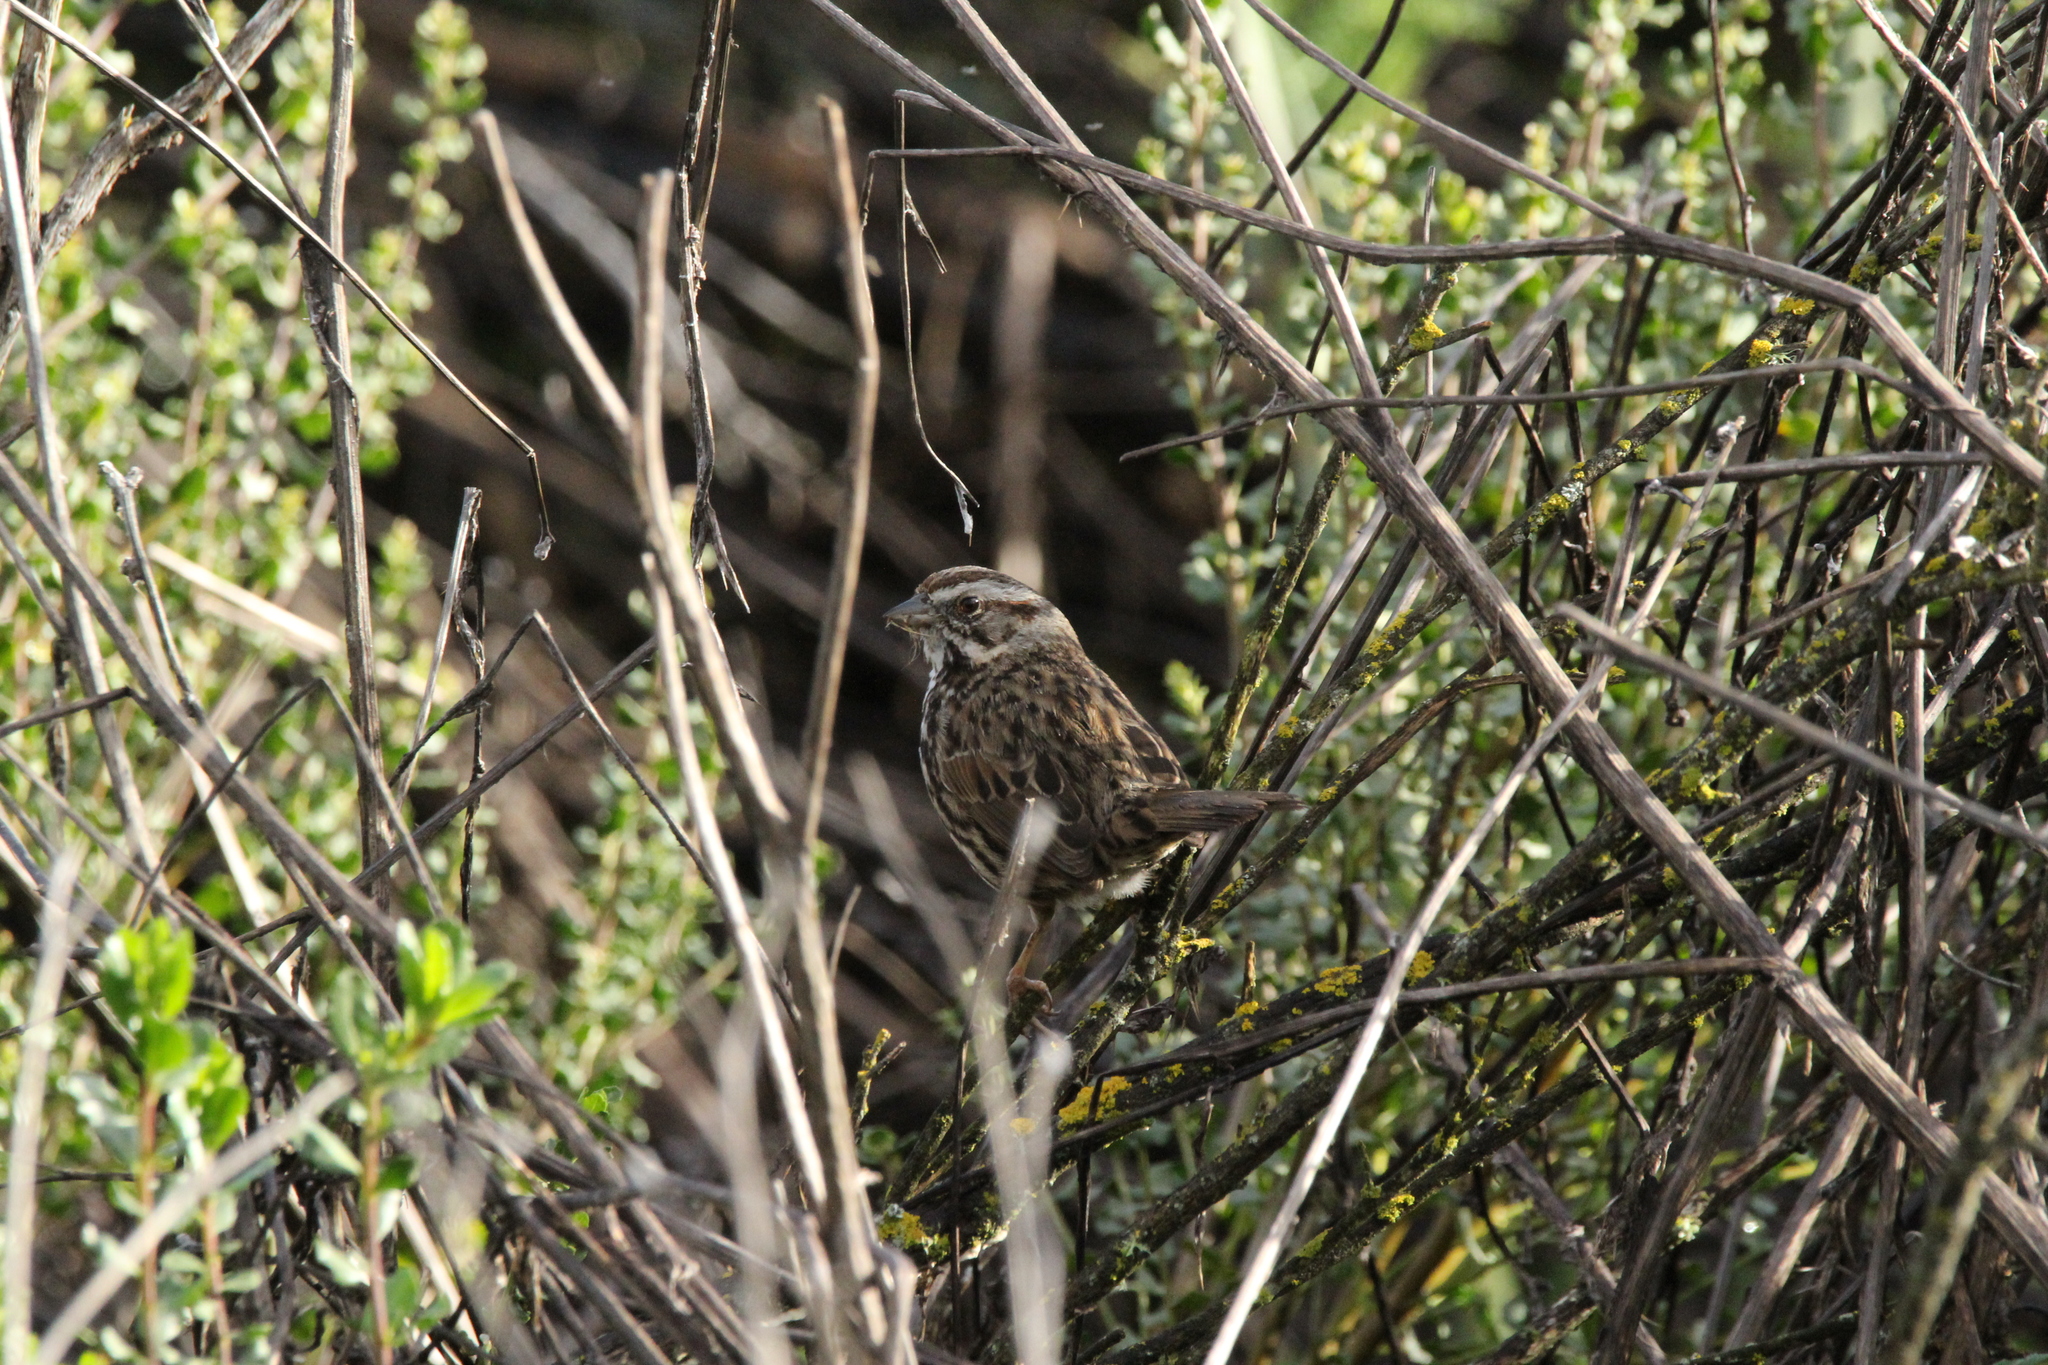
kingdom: Animalia
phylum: Chordata
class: Aves
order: Passeriformes
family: Passerellidae
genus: Melospiza
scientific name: Melospiza melodia
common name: Song sparrow
